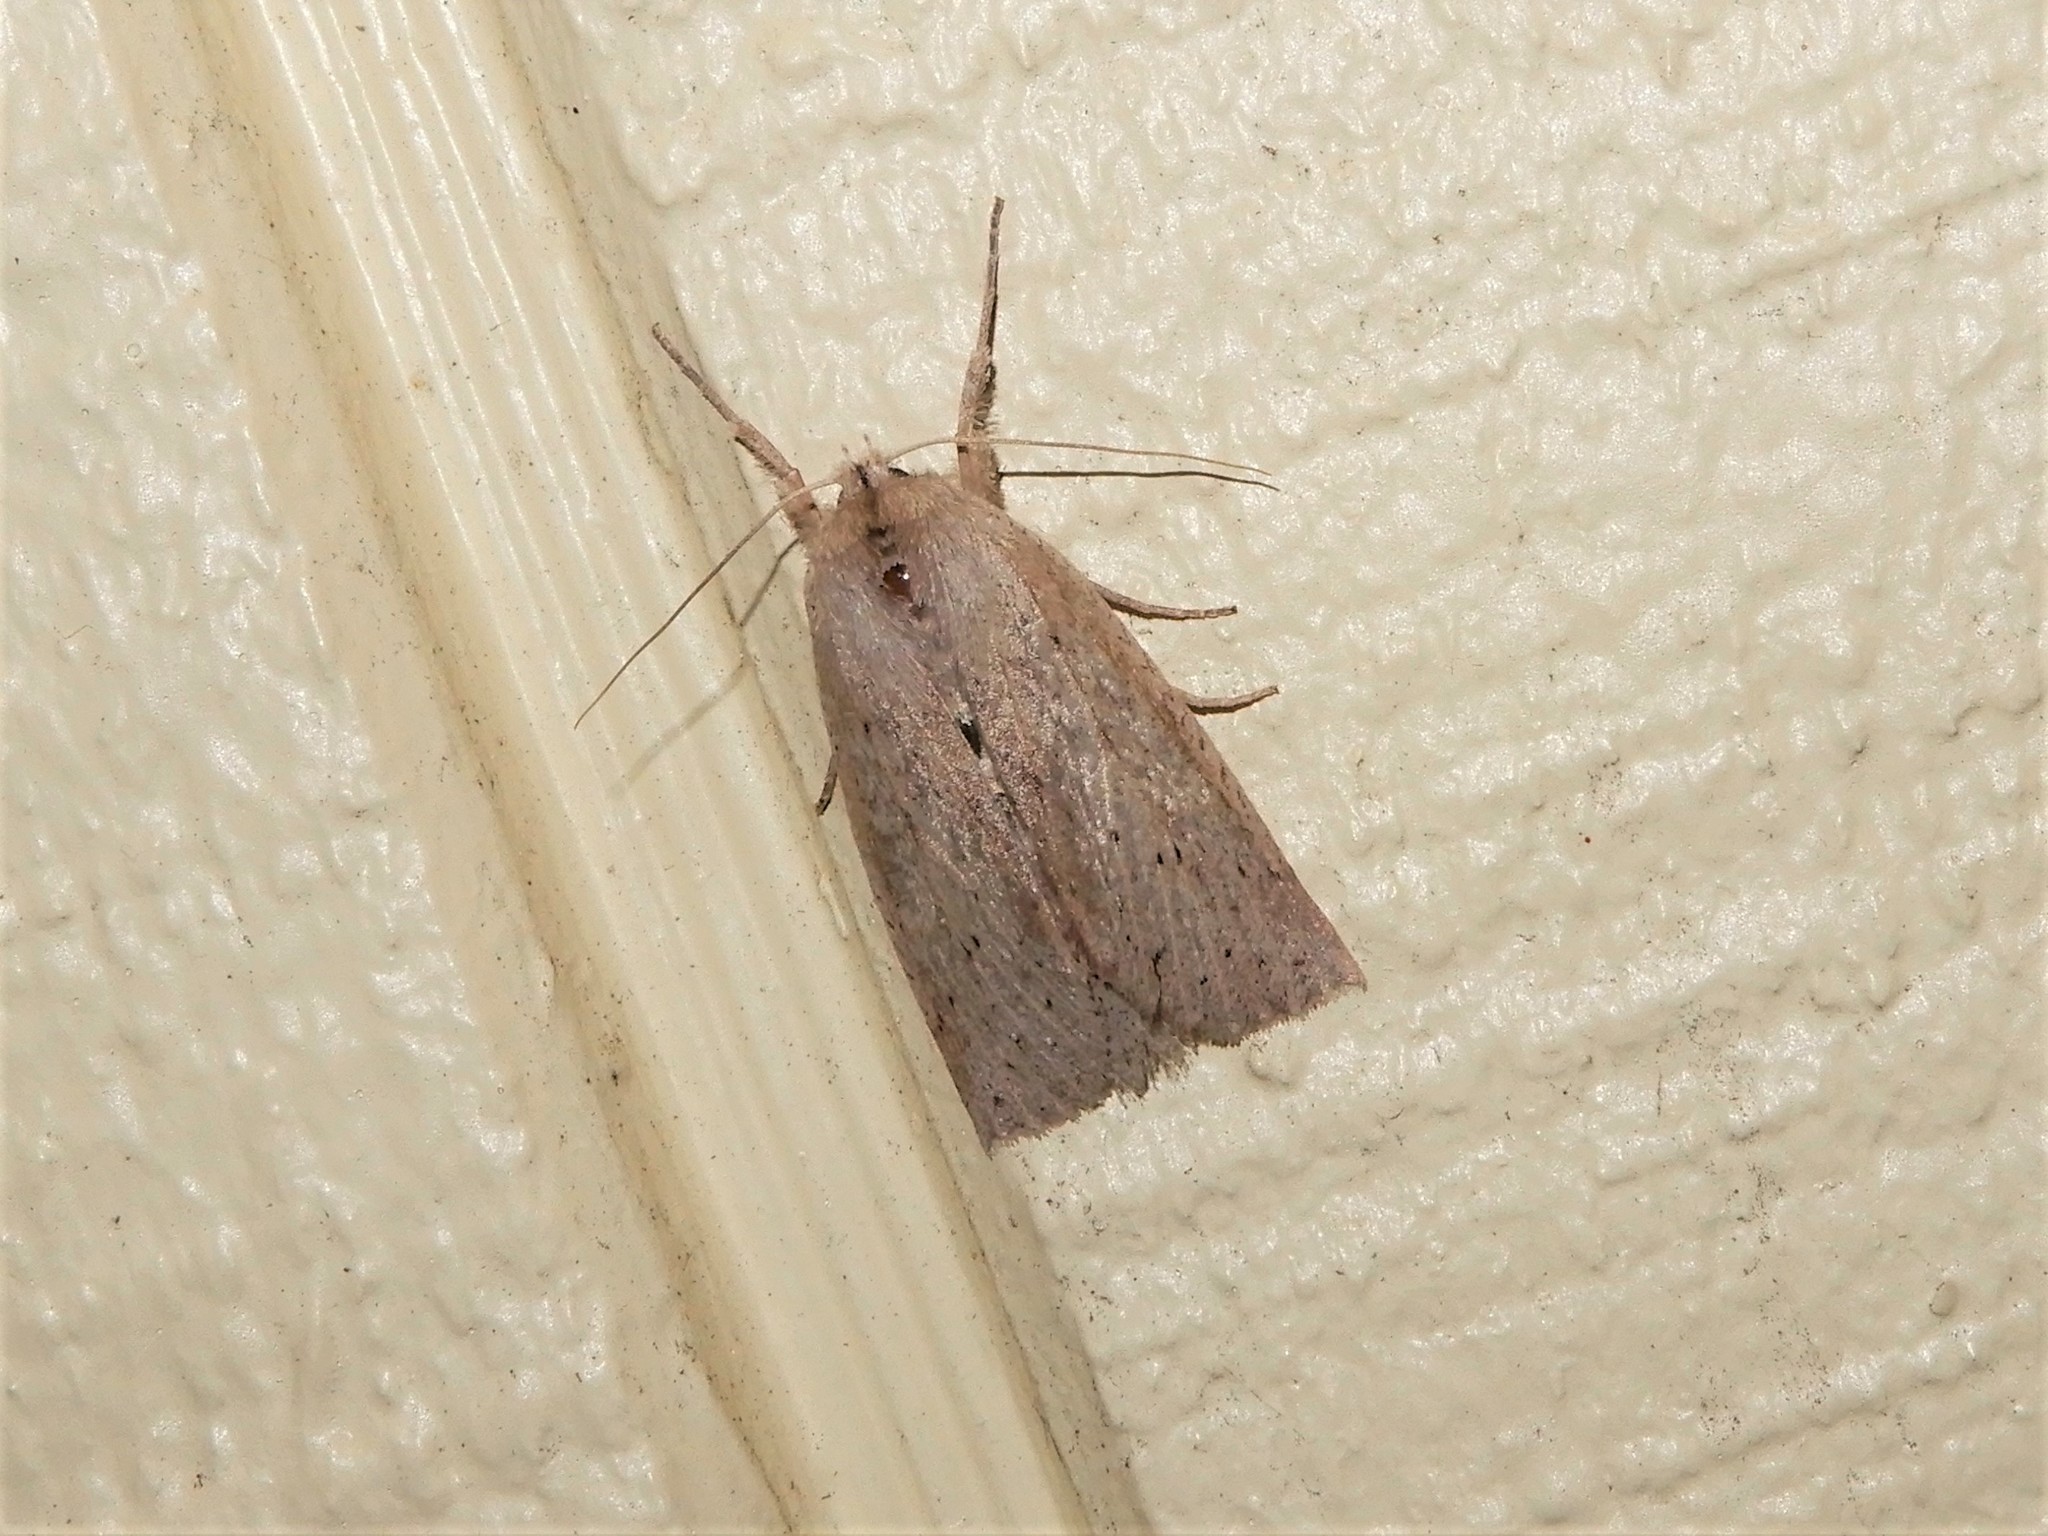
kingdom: Animalia
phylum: Arthropoda
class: Insecta
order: Lepidoptera
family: Geometridae
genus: Declana
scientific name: Declana leptomera
